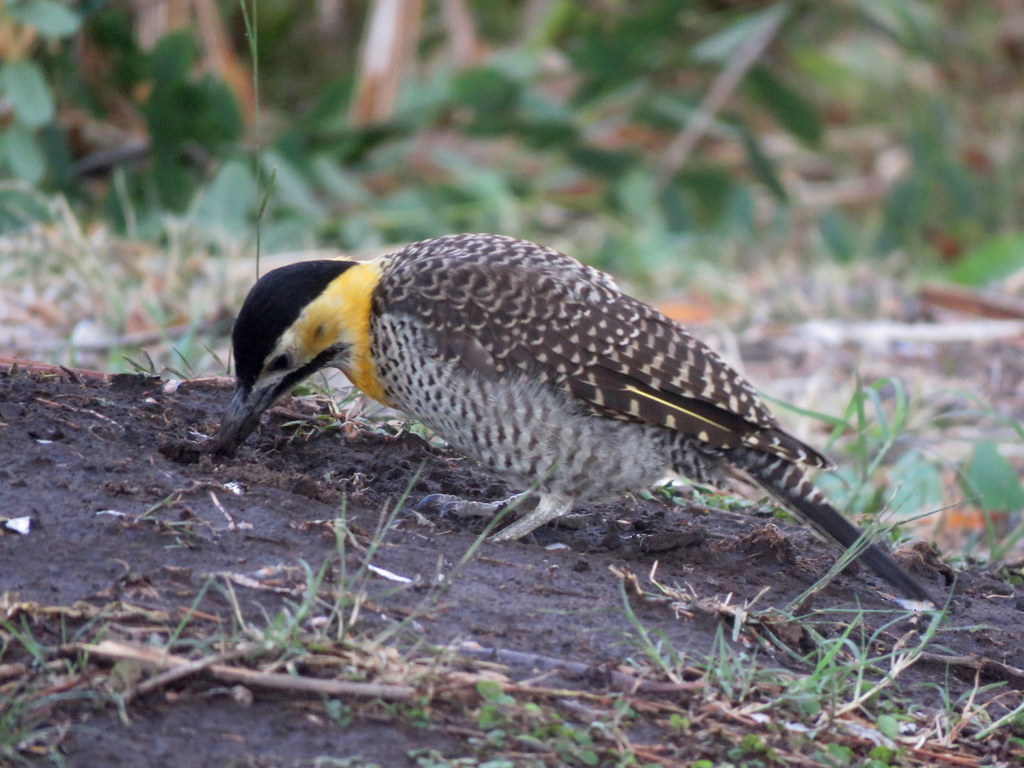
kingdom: Animalia
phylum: Chordata
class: Aves
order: Piciformes
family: Picidae
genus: Colaptes
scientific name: Colaptes campestris
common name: Campo flicker
